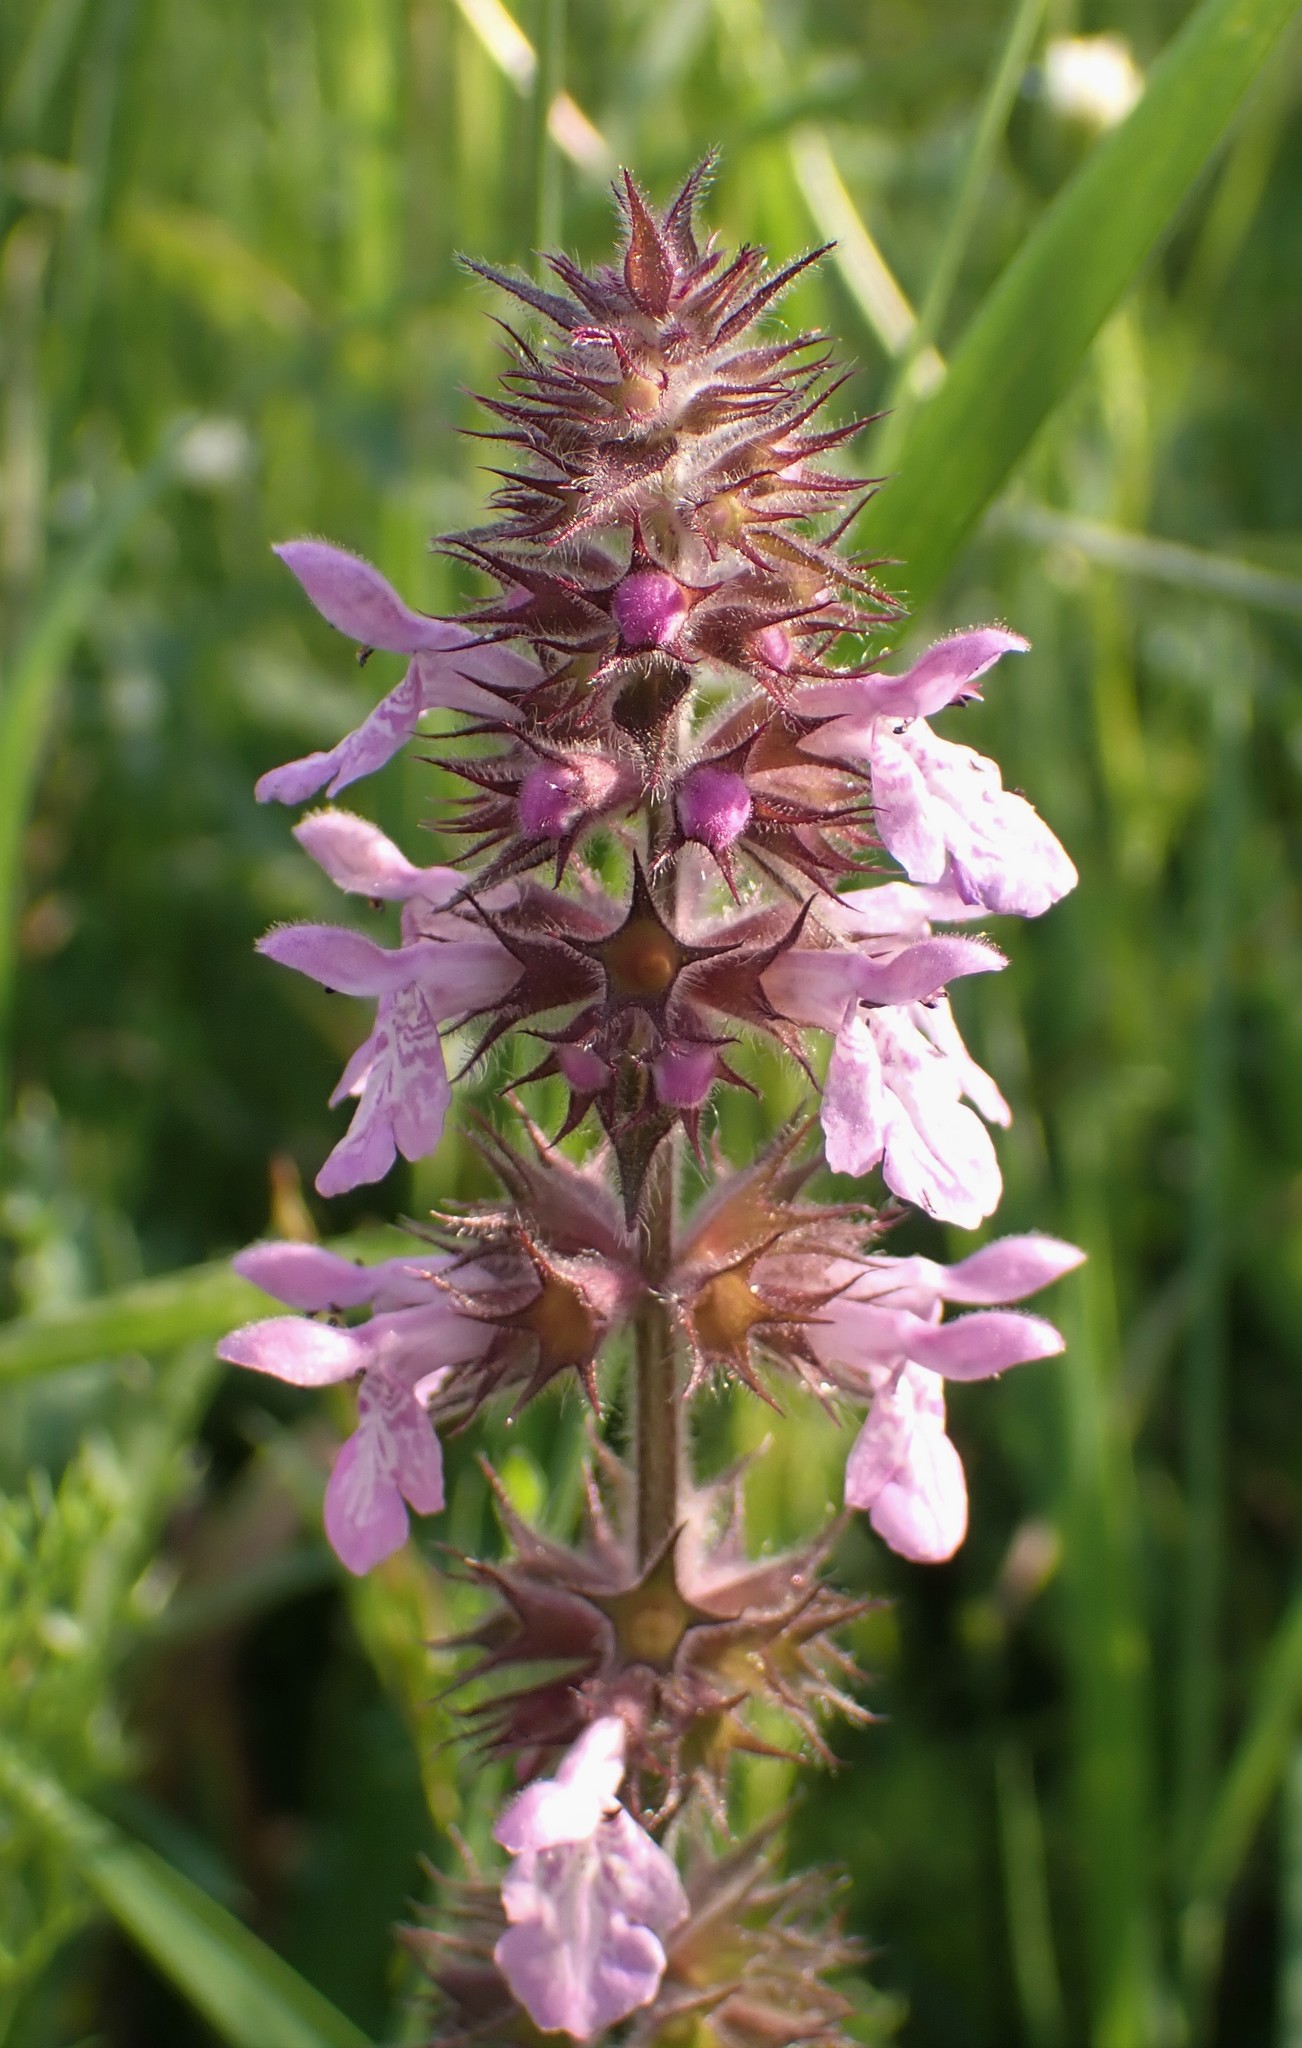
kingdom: Plantae
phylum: Tracheophyta
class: Magnoliopsida
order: Lamiales
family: Lamiaceae
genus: Stachys
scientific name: Stachys palustris
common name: Marsh woundwort
